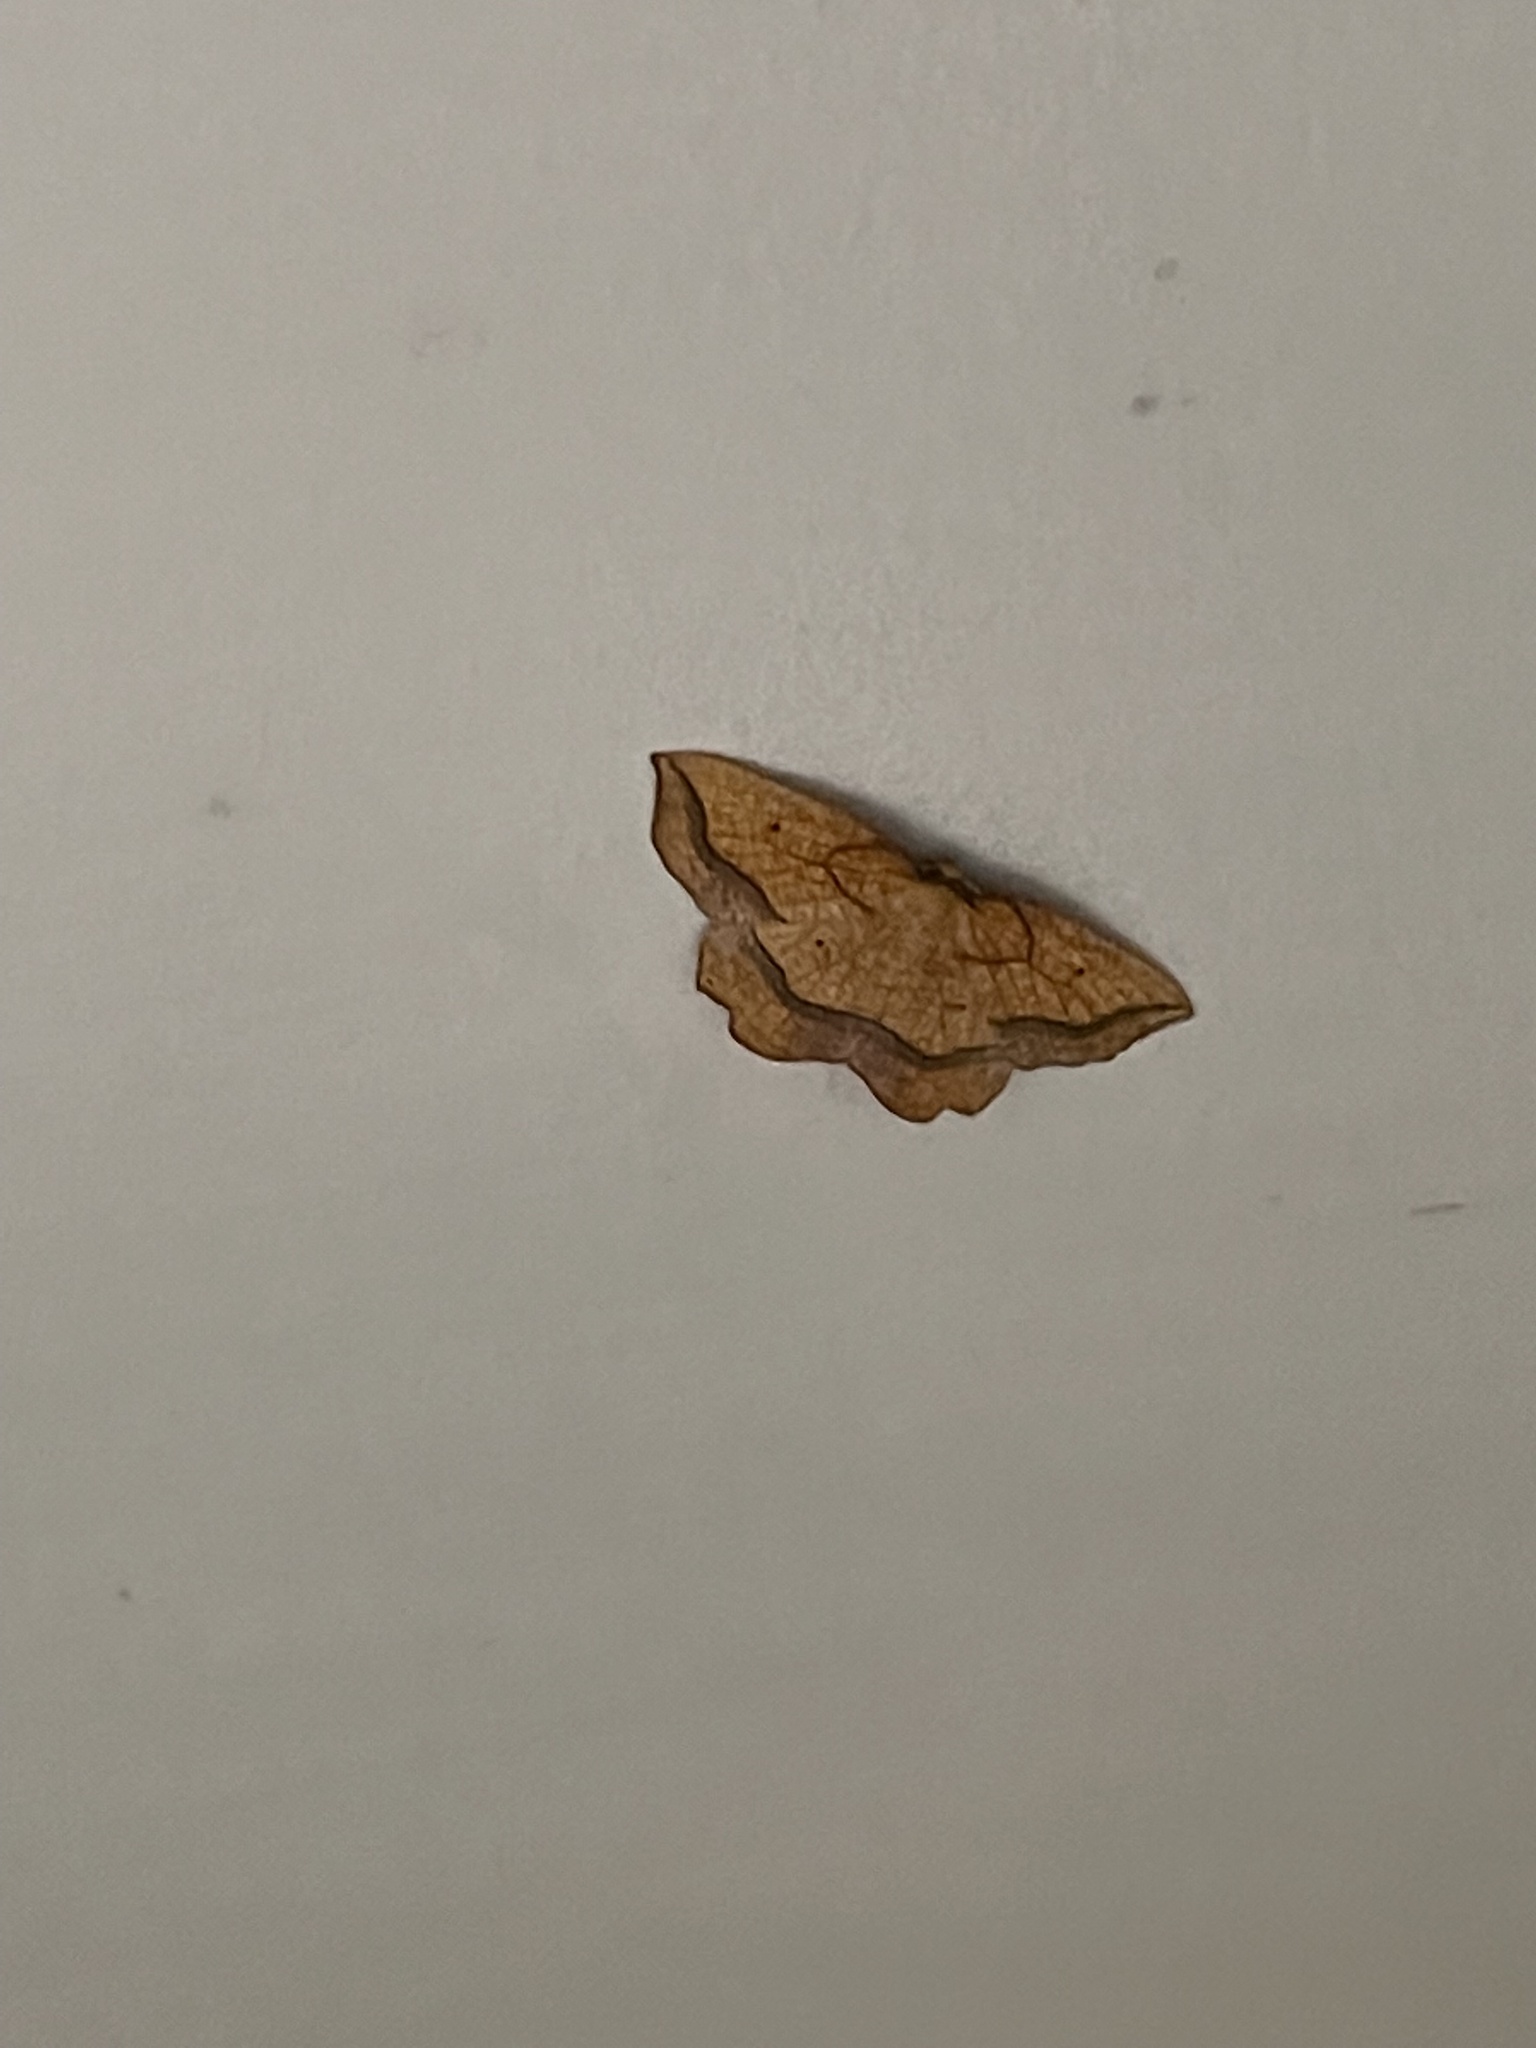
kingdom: Animalia
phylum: Arthropoda
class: Insecta
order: Lepidoptera
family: Geometridae
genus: Epione
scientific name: Epione repandaria
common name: Bordered beauty
